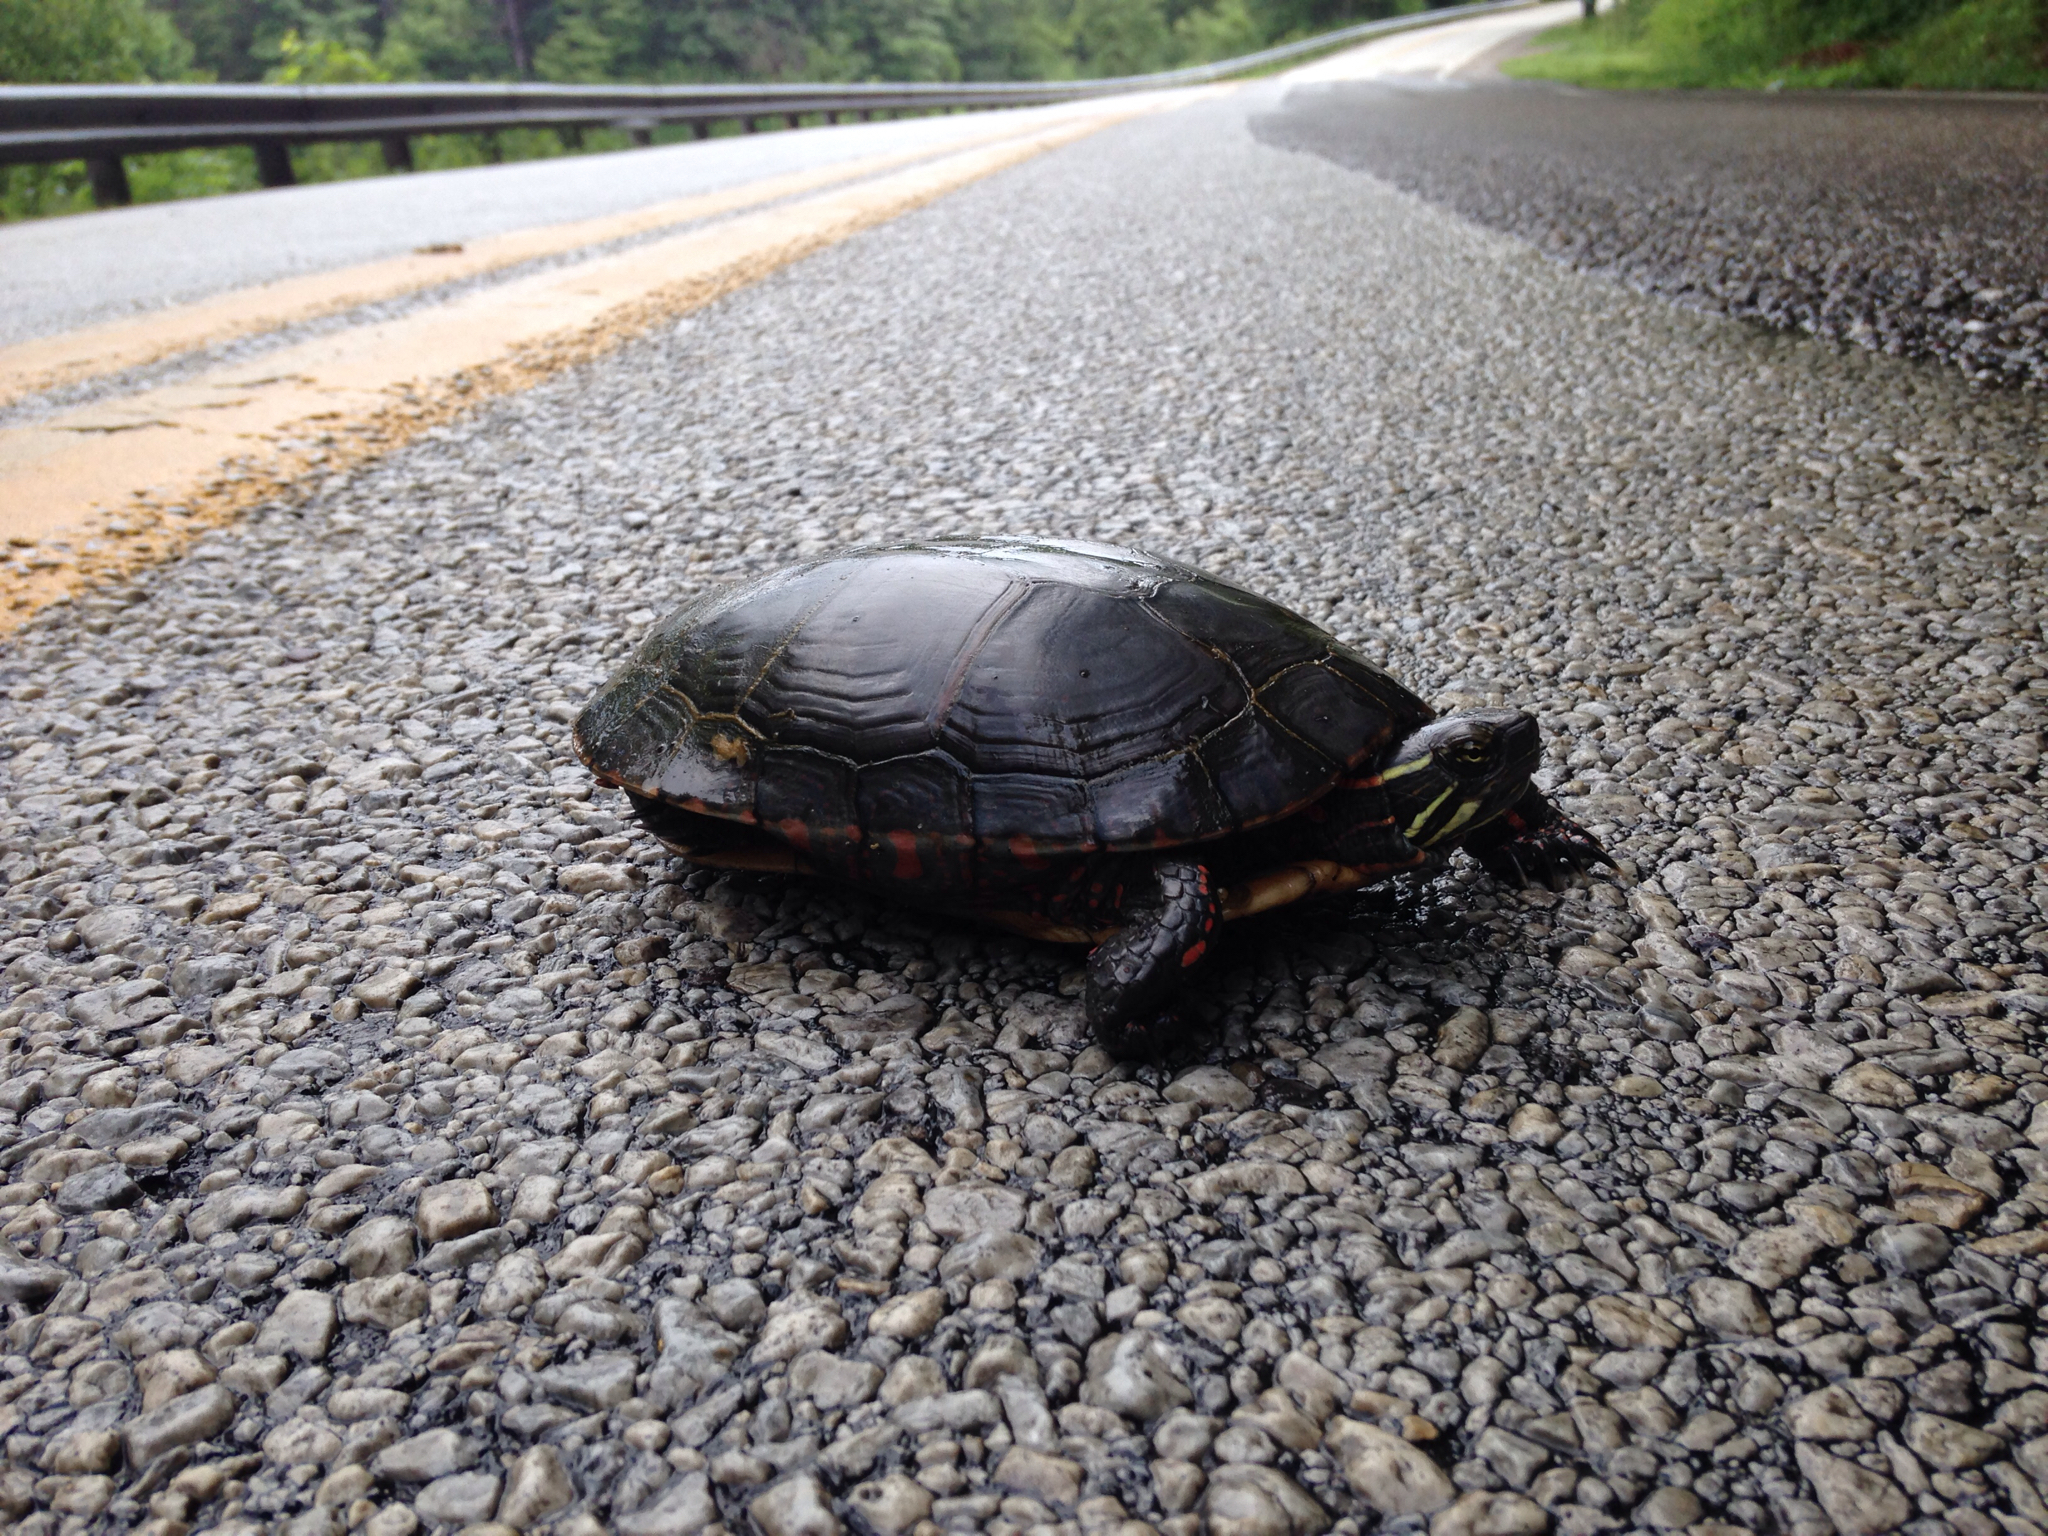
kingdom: Animalia
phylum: Chordata
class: Testudines
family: Emydidae
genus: Chrysemys
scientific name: Chrysemys picta
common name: Painted turtle
